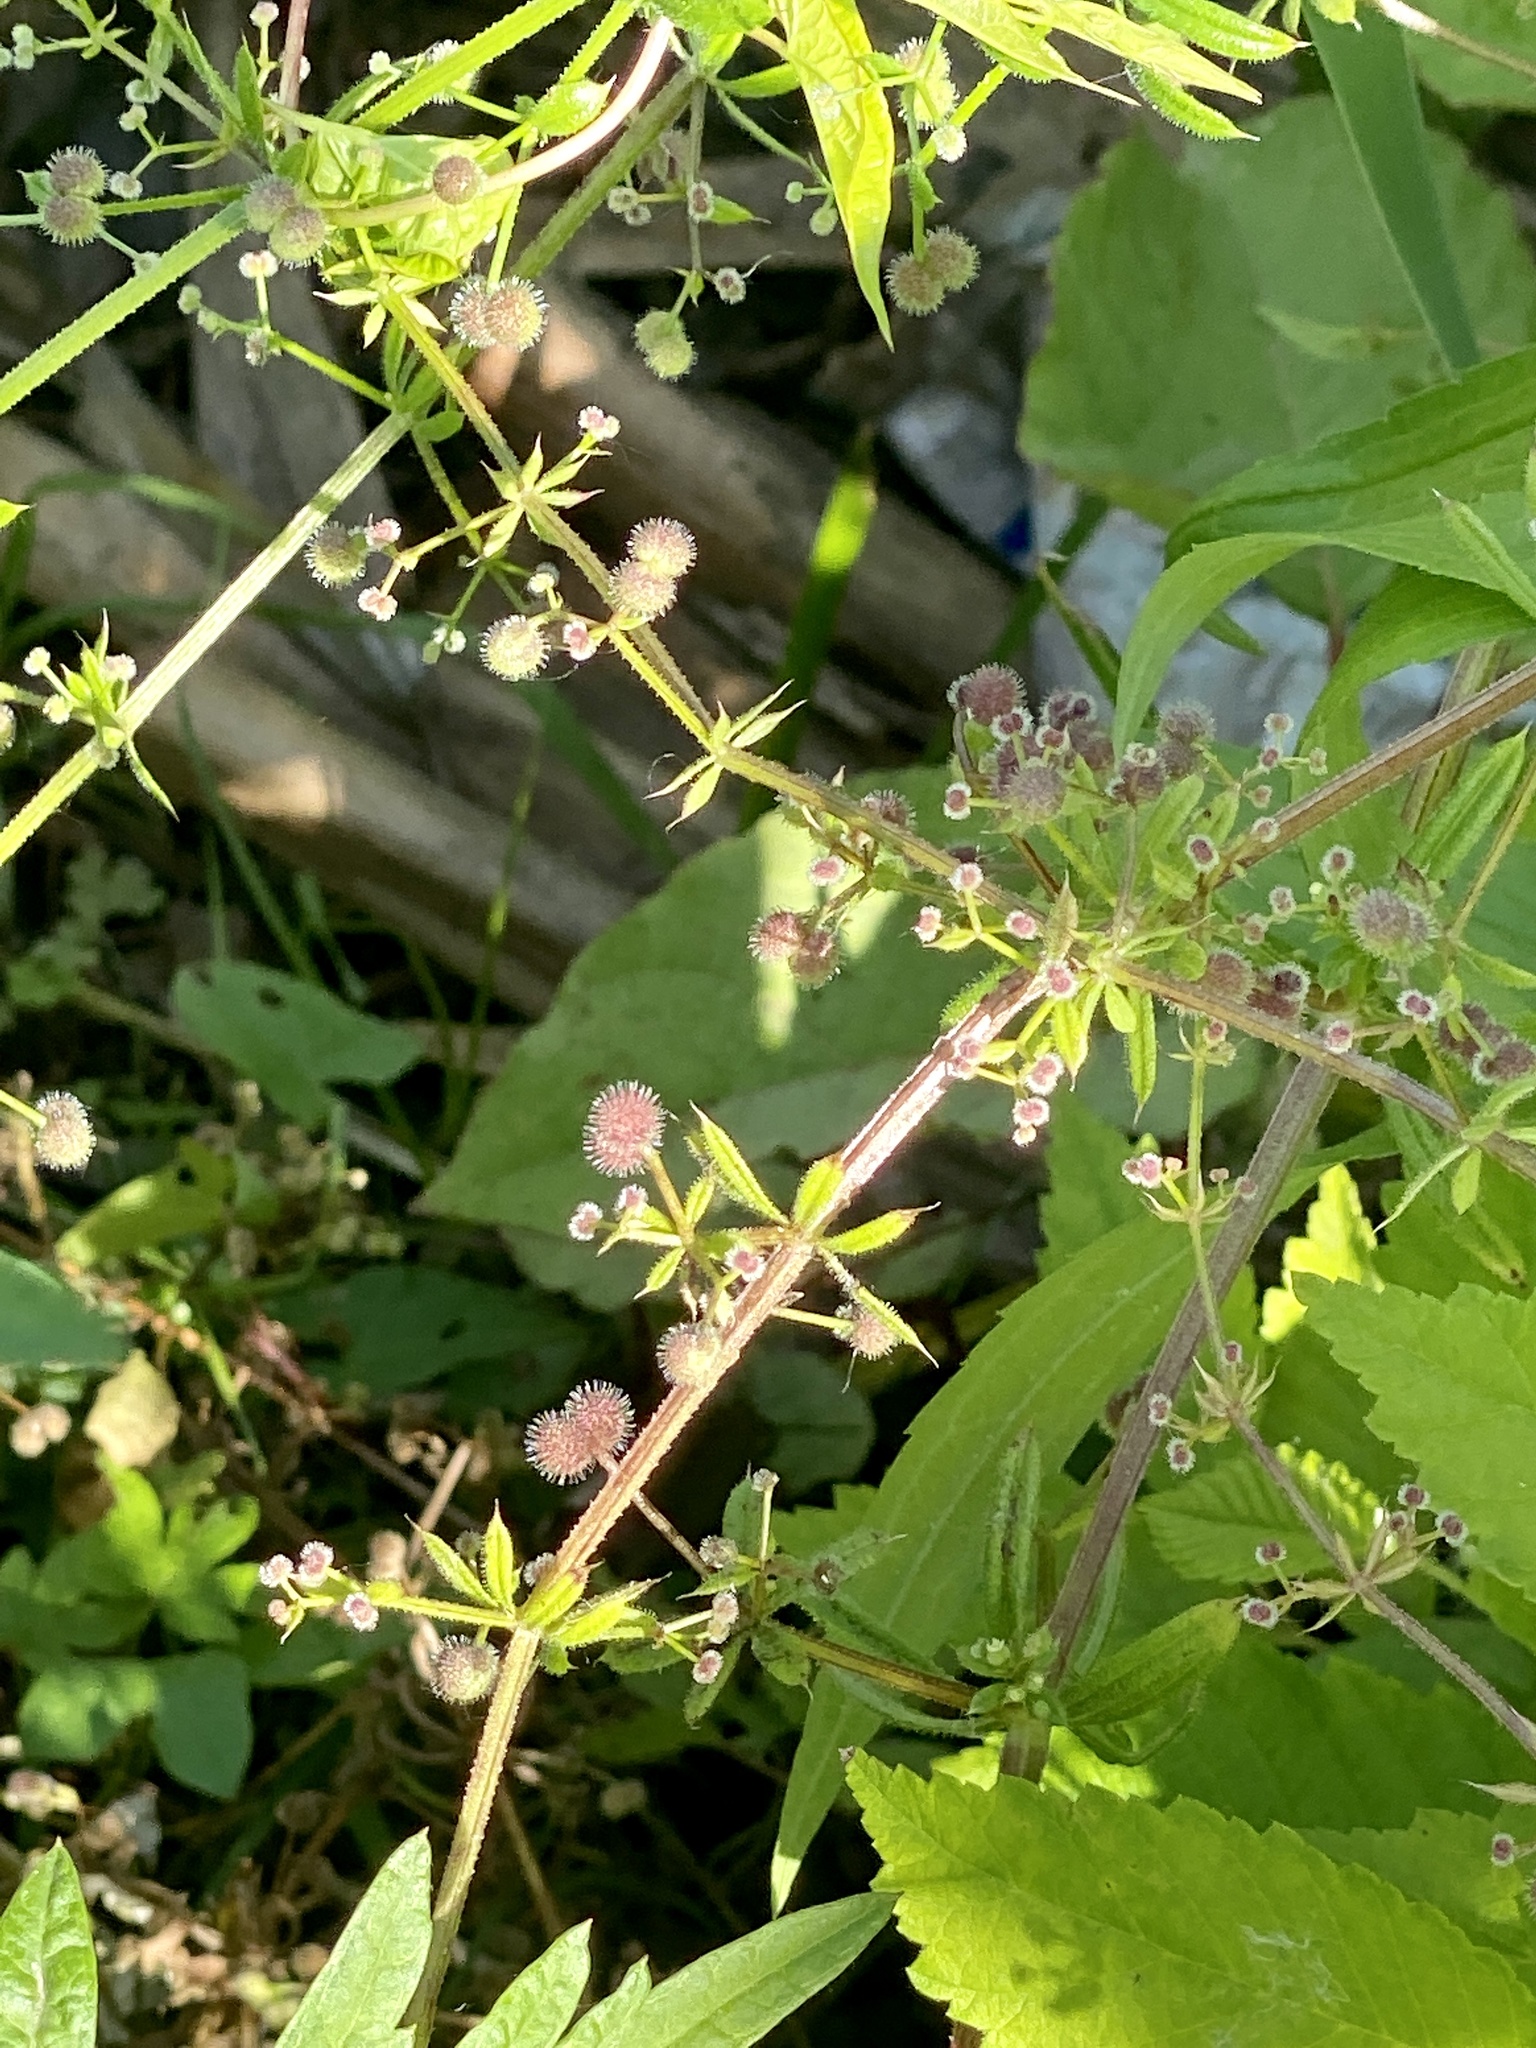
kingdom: Plantae
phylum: Tracheophyta
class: Magnoliopsida
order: Gentianales
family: Rubiaceae
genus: Galium
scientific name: Galium aparine
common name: Cleavers
